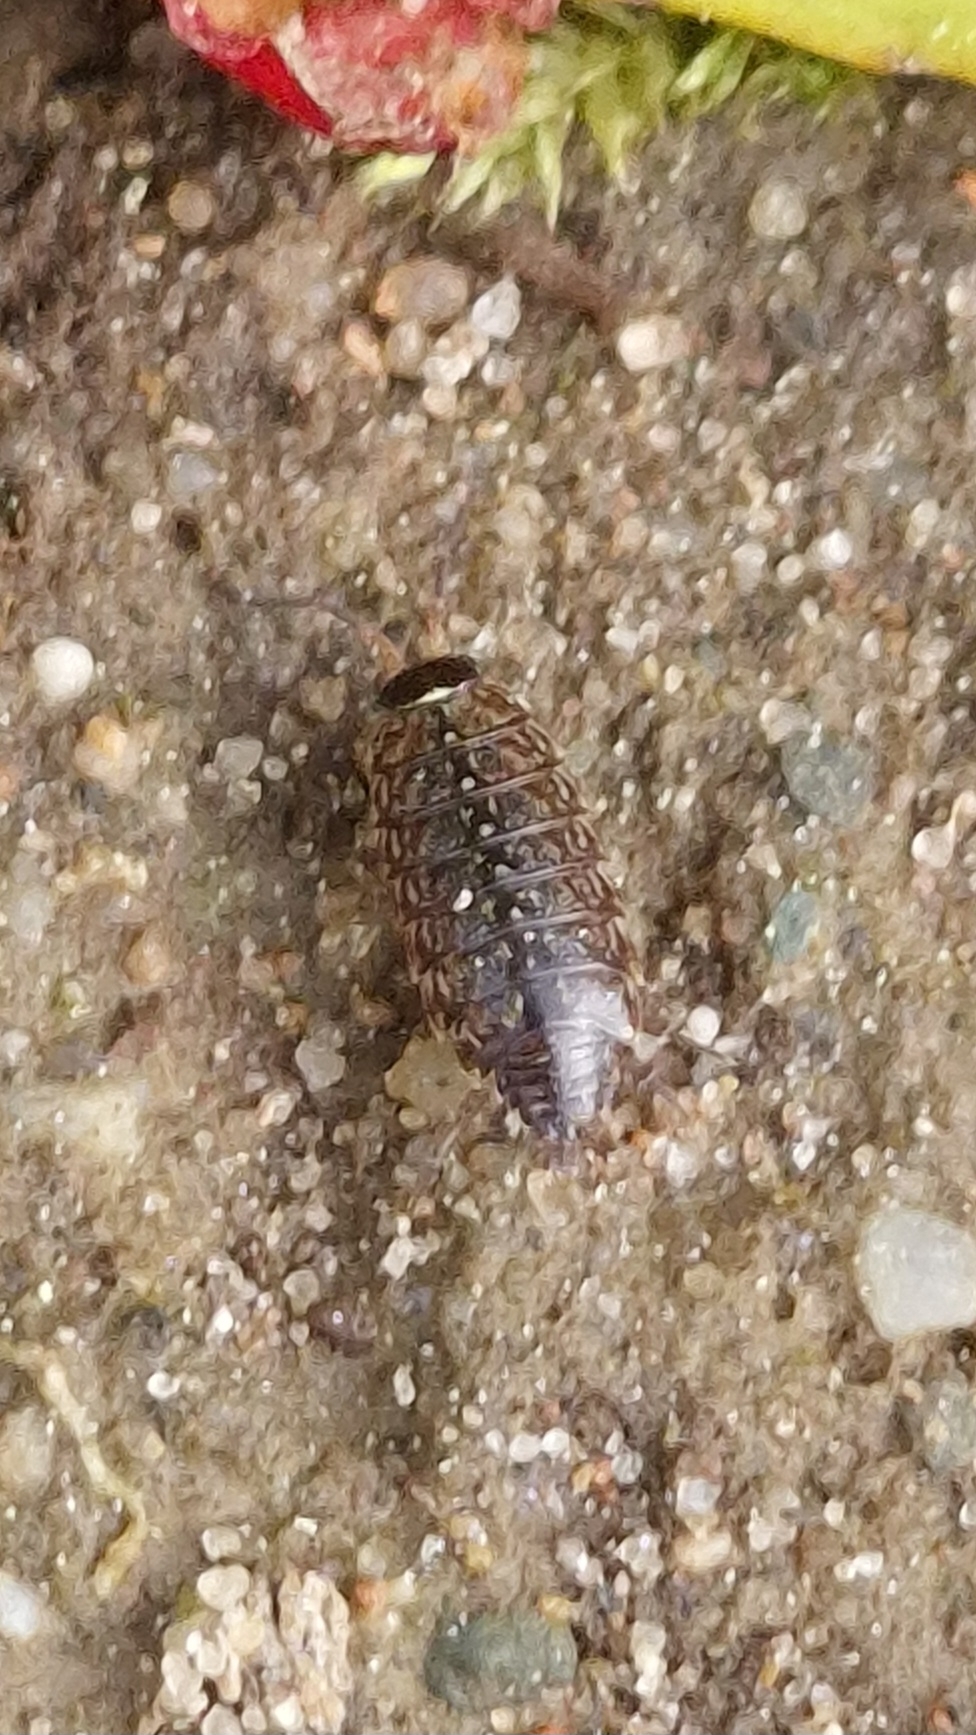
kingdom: Animalia
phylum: Arthropoda
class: Malacostraca
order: Isopoda
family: Philosciidae
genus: Philoscia
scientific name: Philoscia muscorum
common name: Common striped woodlouse
